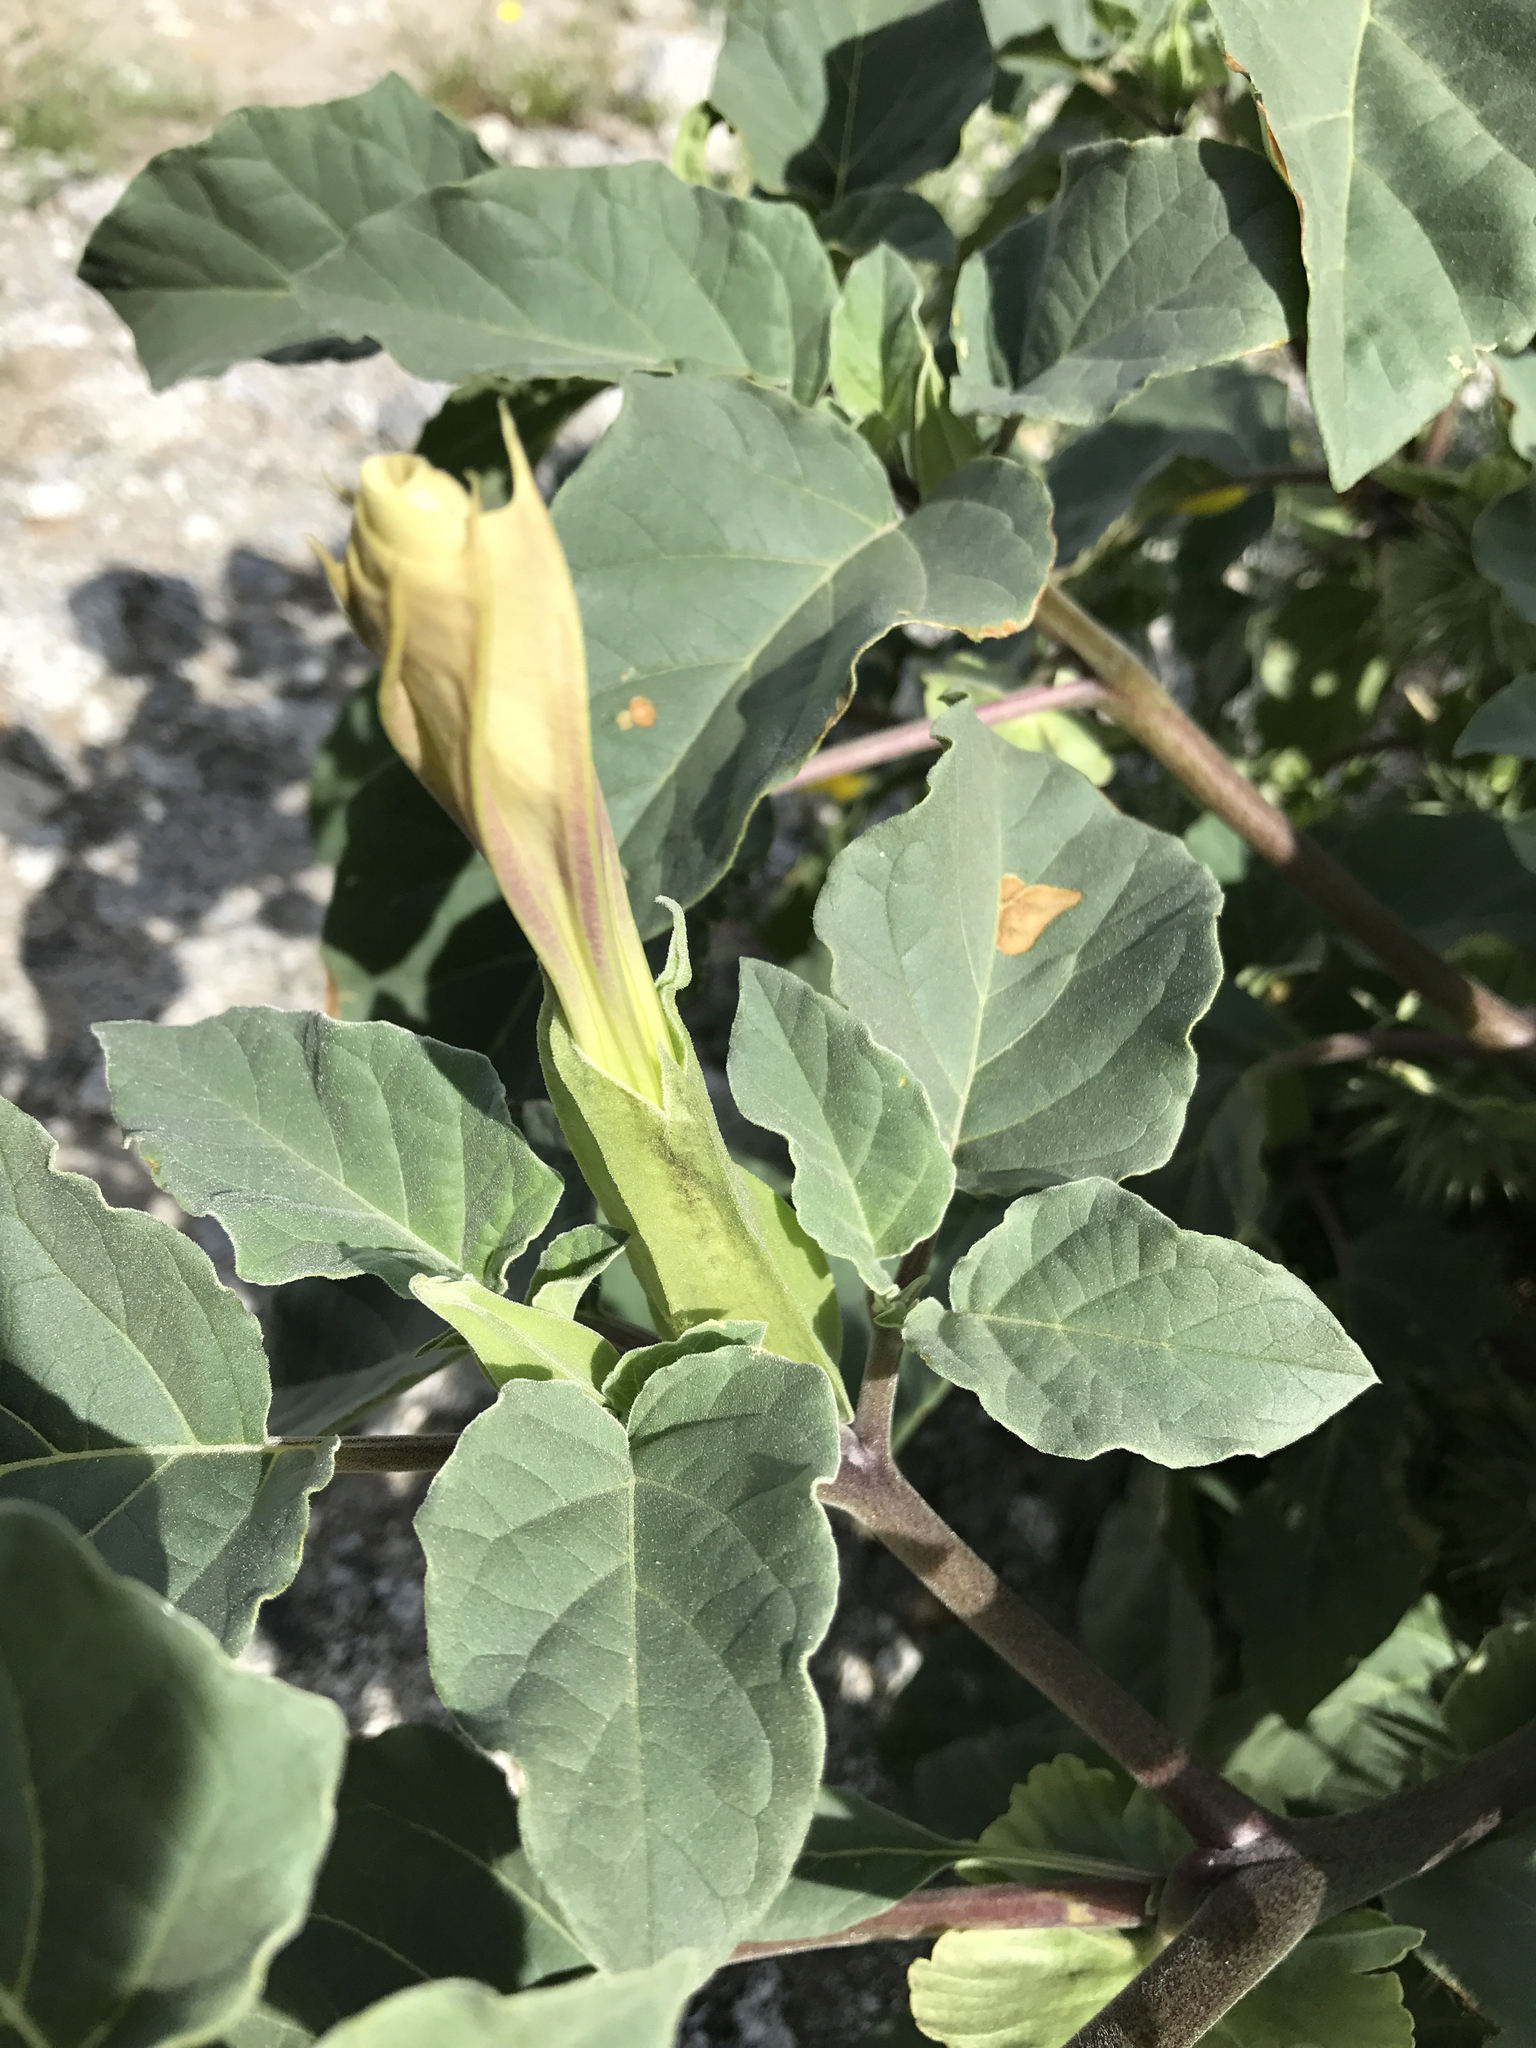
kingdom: Plantae
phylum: Tracheophyta
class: Magnoliopsida
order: Solanales
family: Solanaceae
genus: Datura
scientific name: Datura discolor
